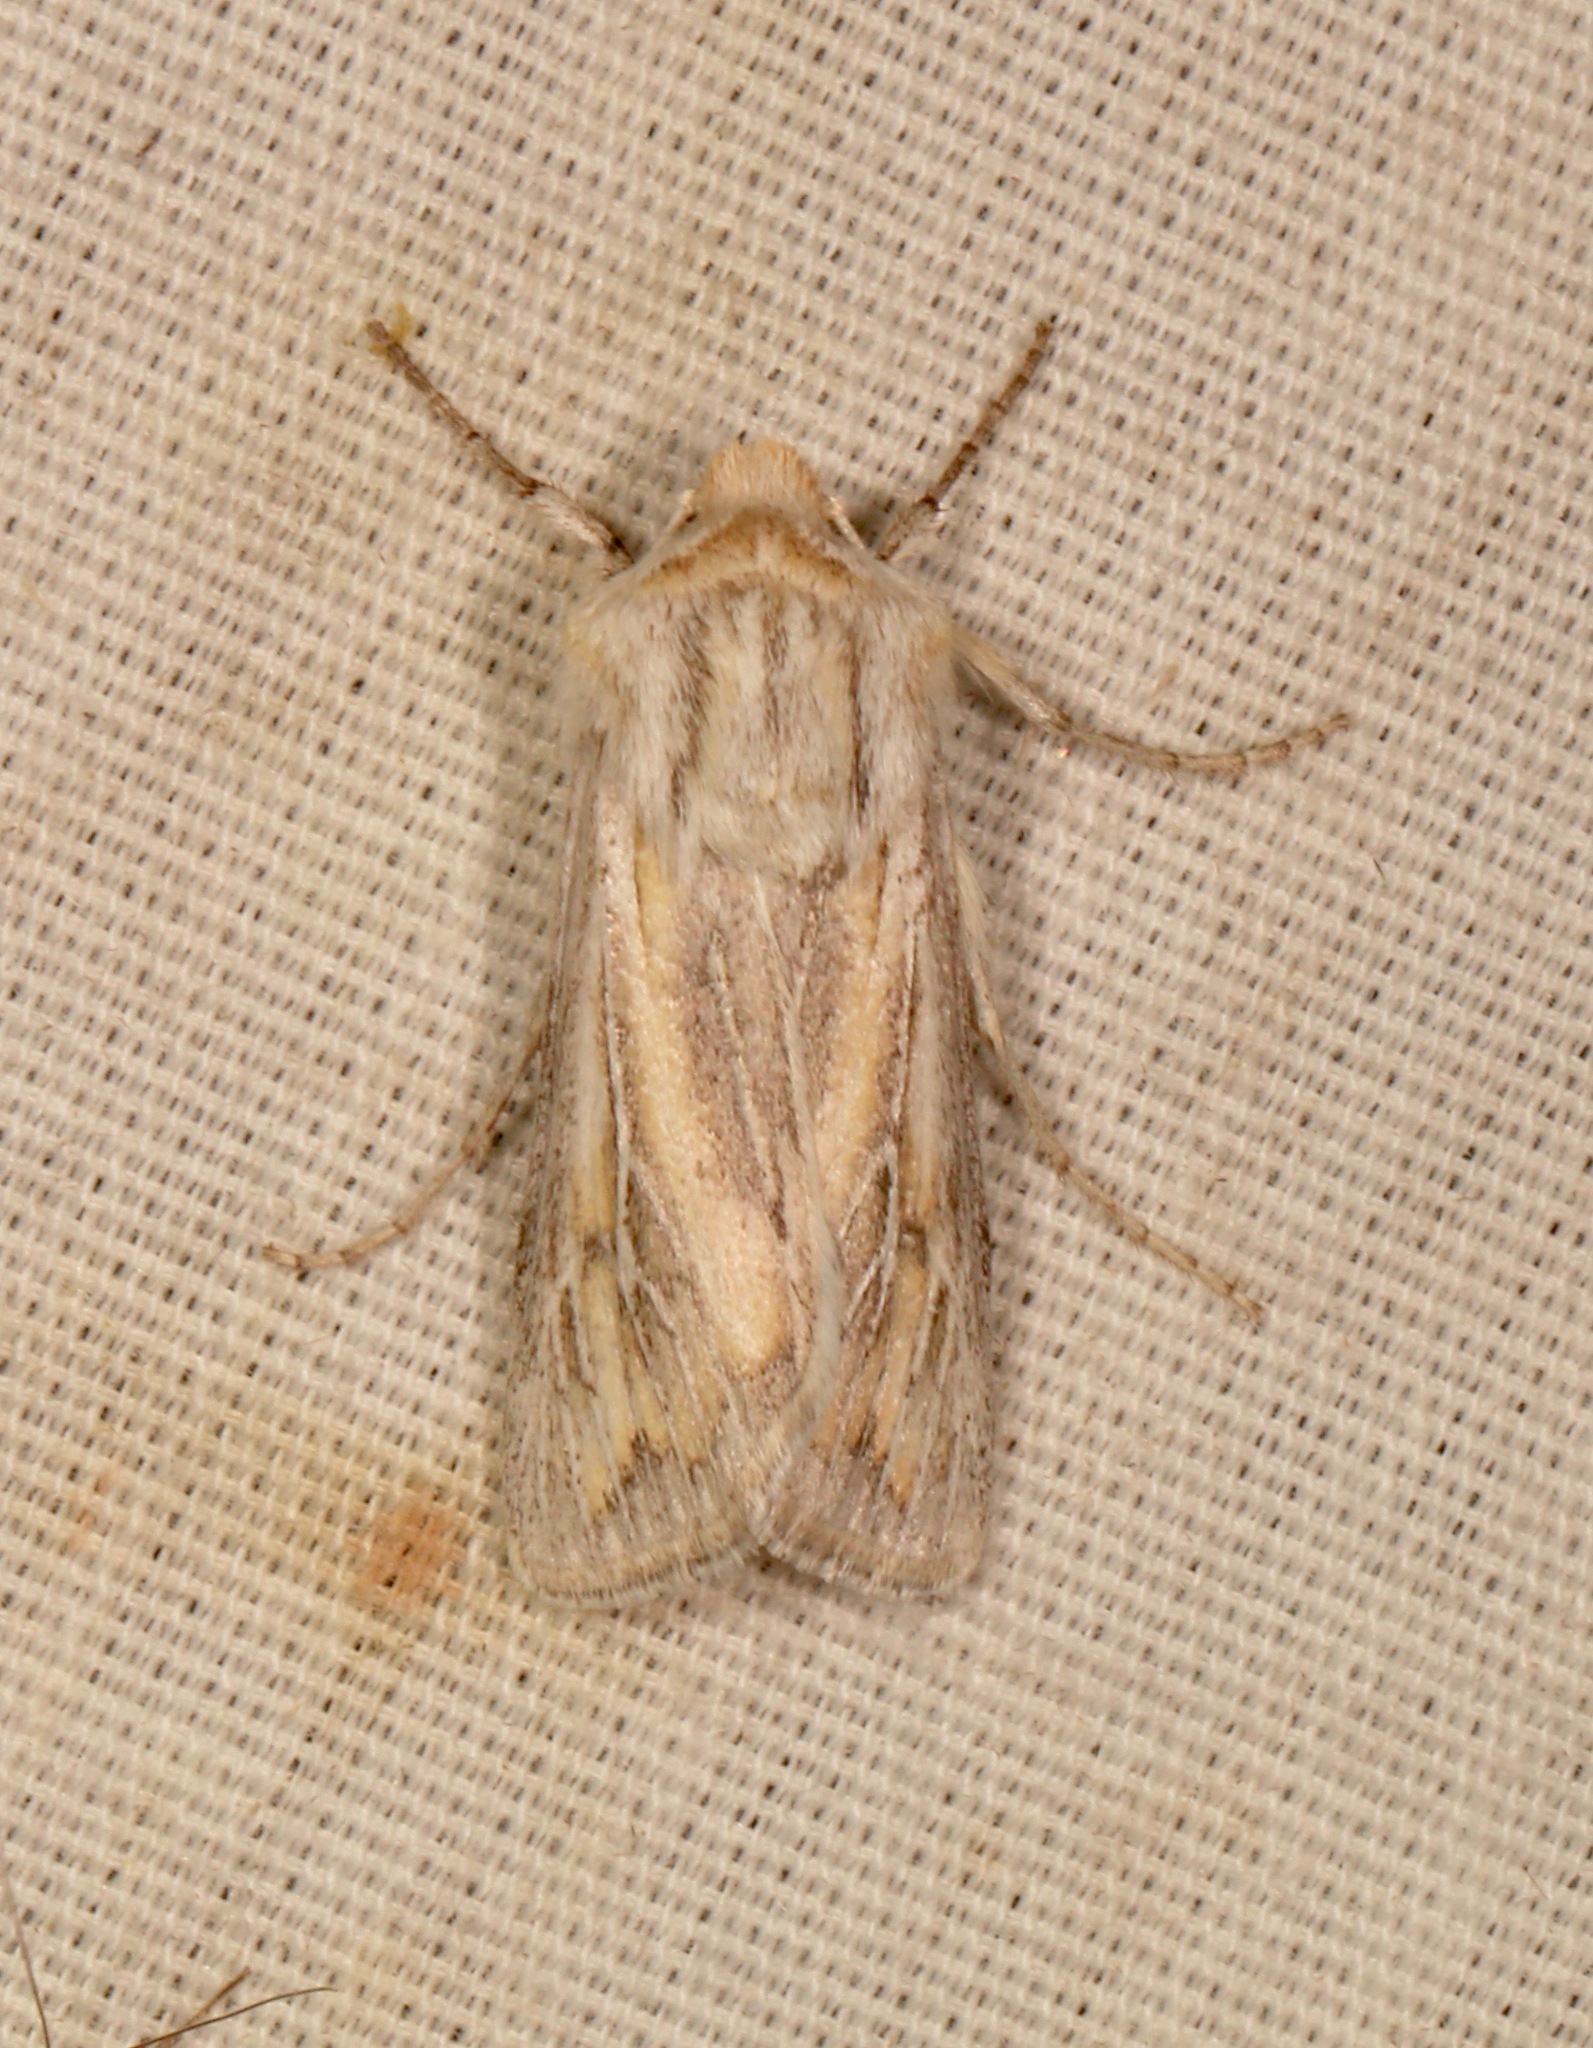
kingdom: Animalia
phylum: Arthropoda
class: Insecta
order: Lepidoptera
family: Noctuidae
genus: Protogygia
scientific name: Protogygia polingi
